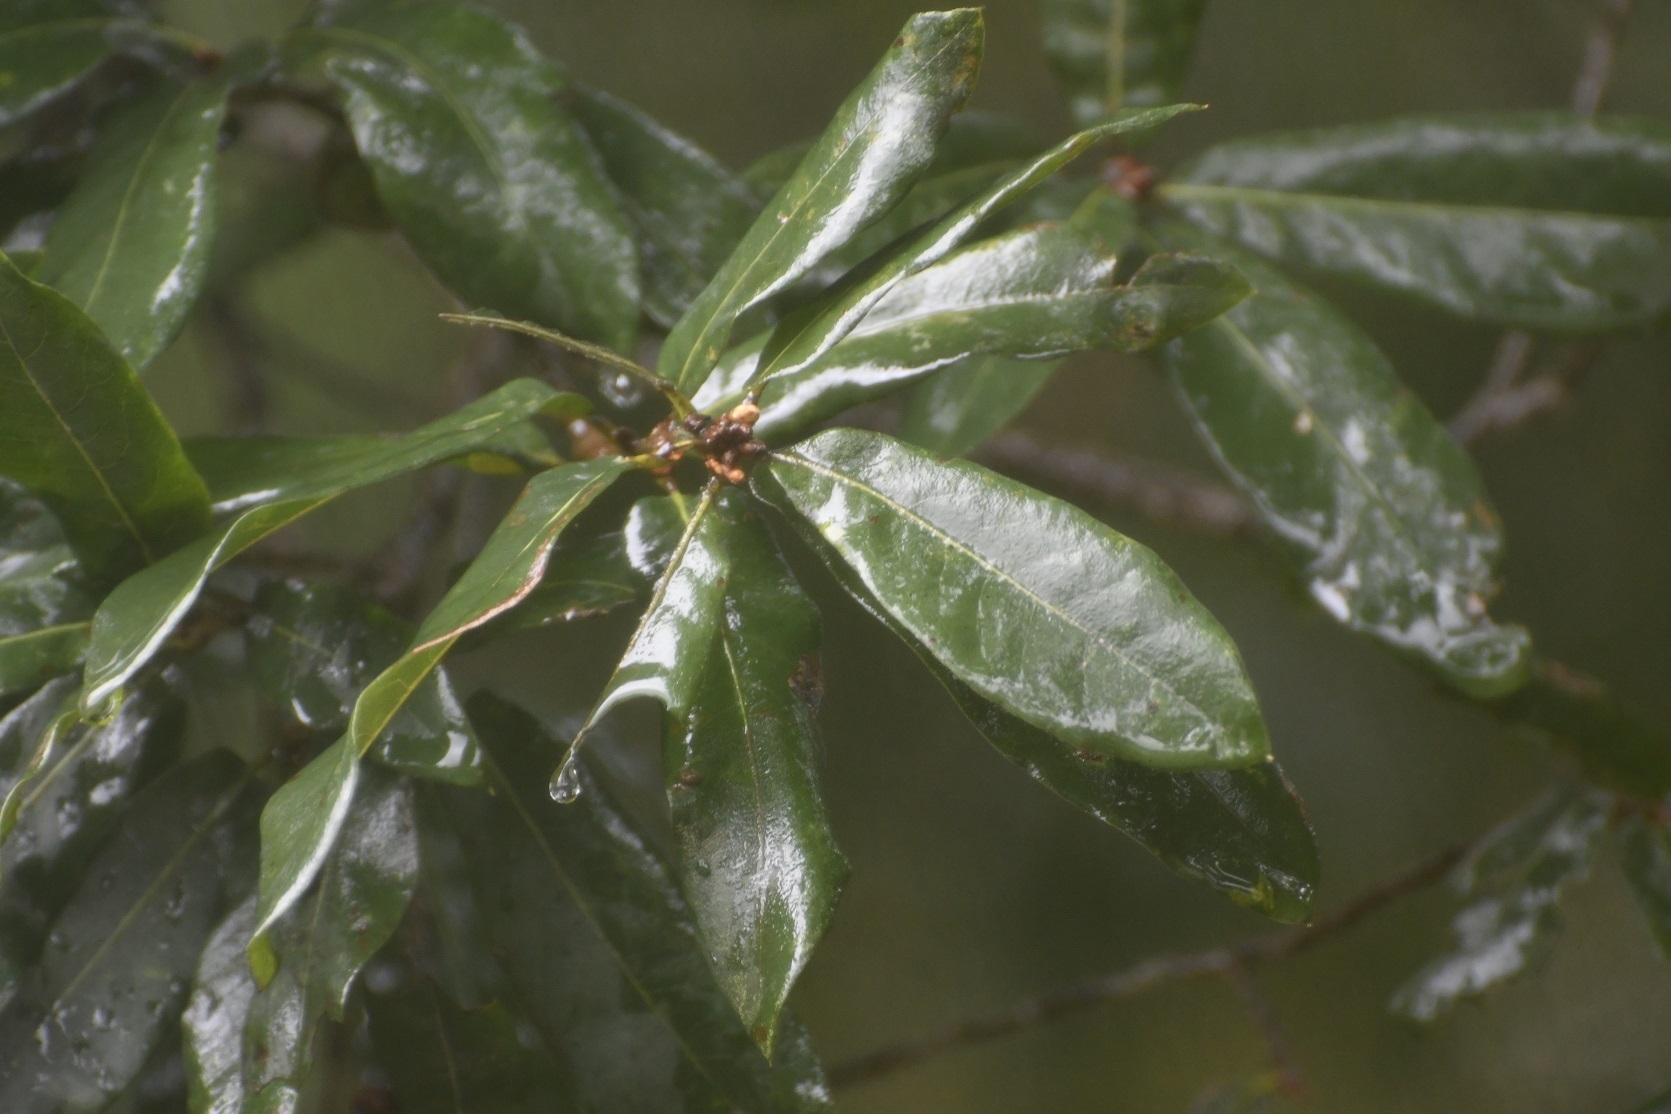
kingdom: Plantae
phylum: Tracheophyta
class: Magnoliopsida
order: Fagales
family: Fagaceae
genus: Quercus
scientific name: Quercus crispipilis
